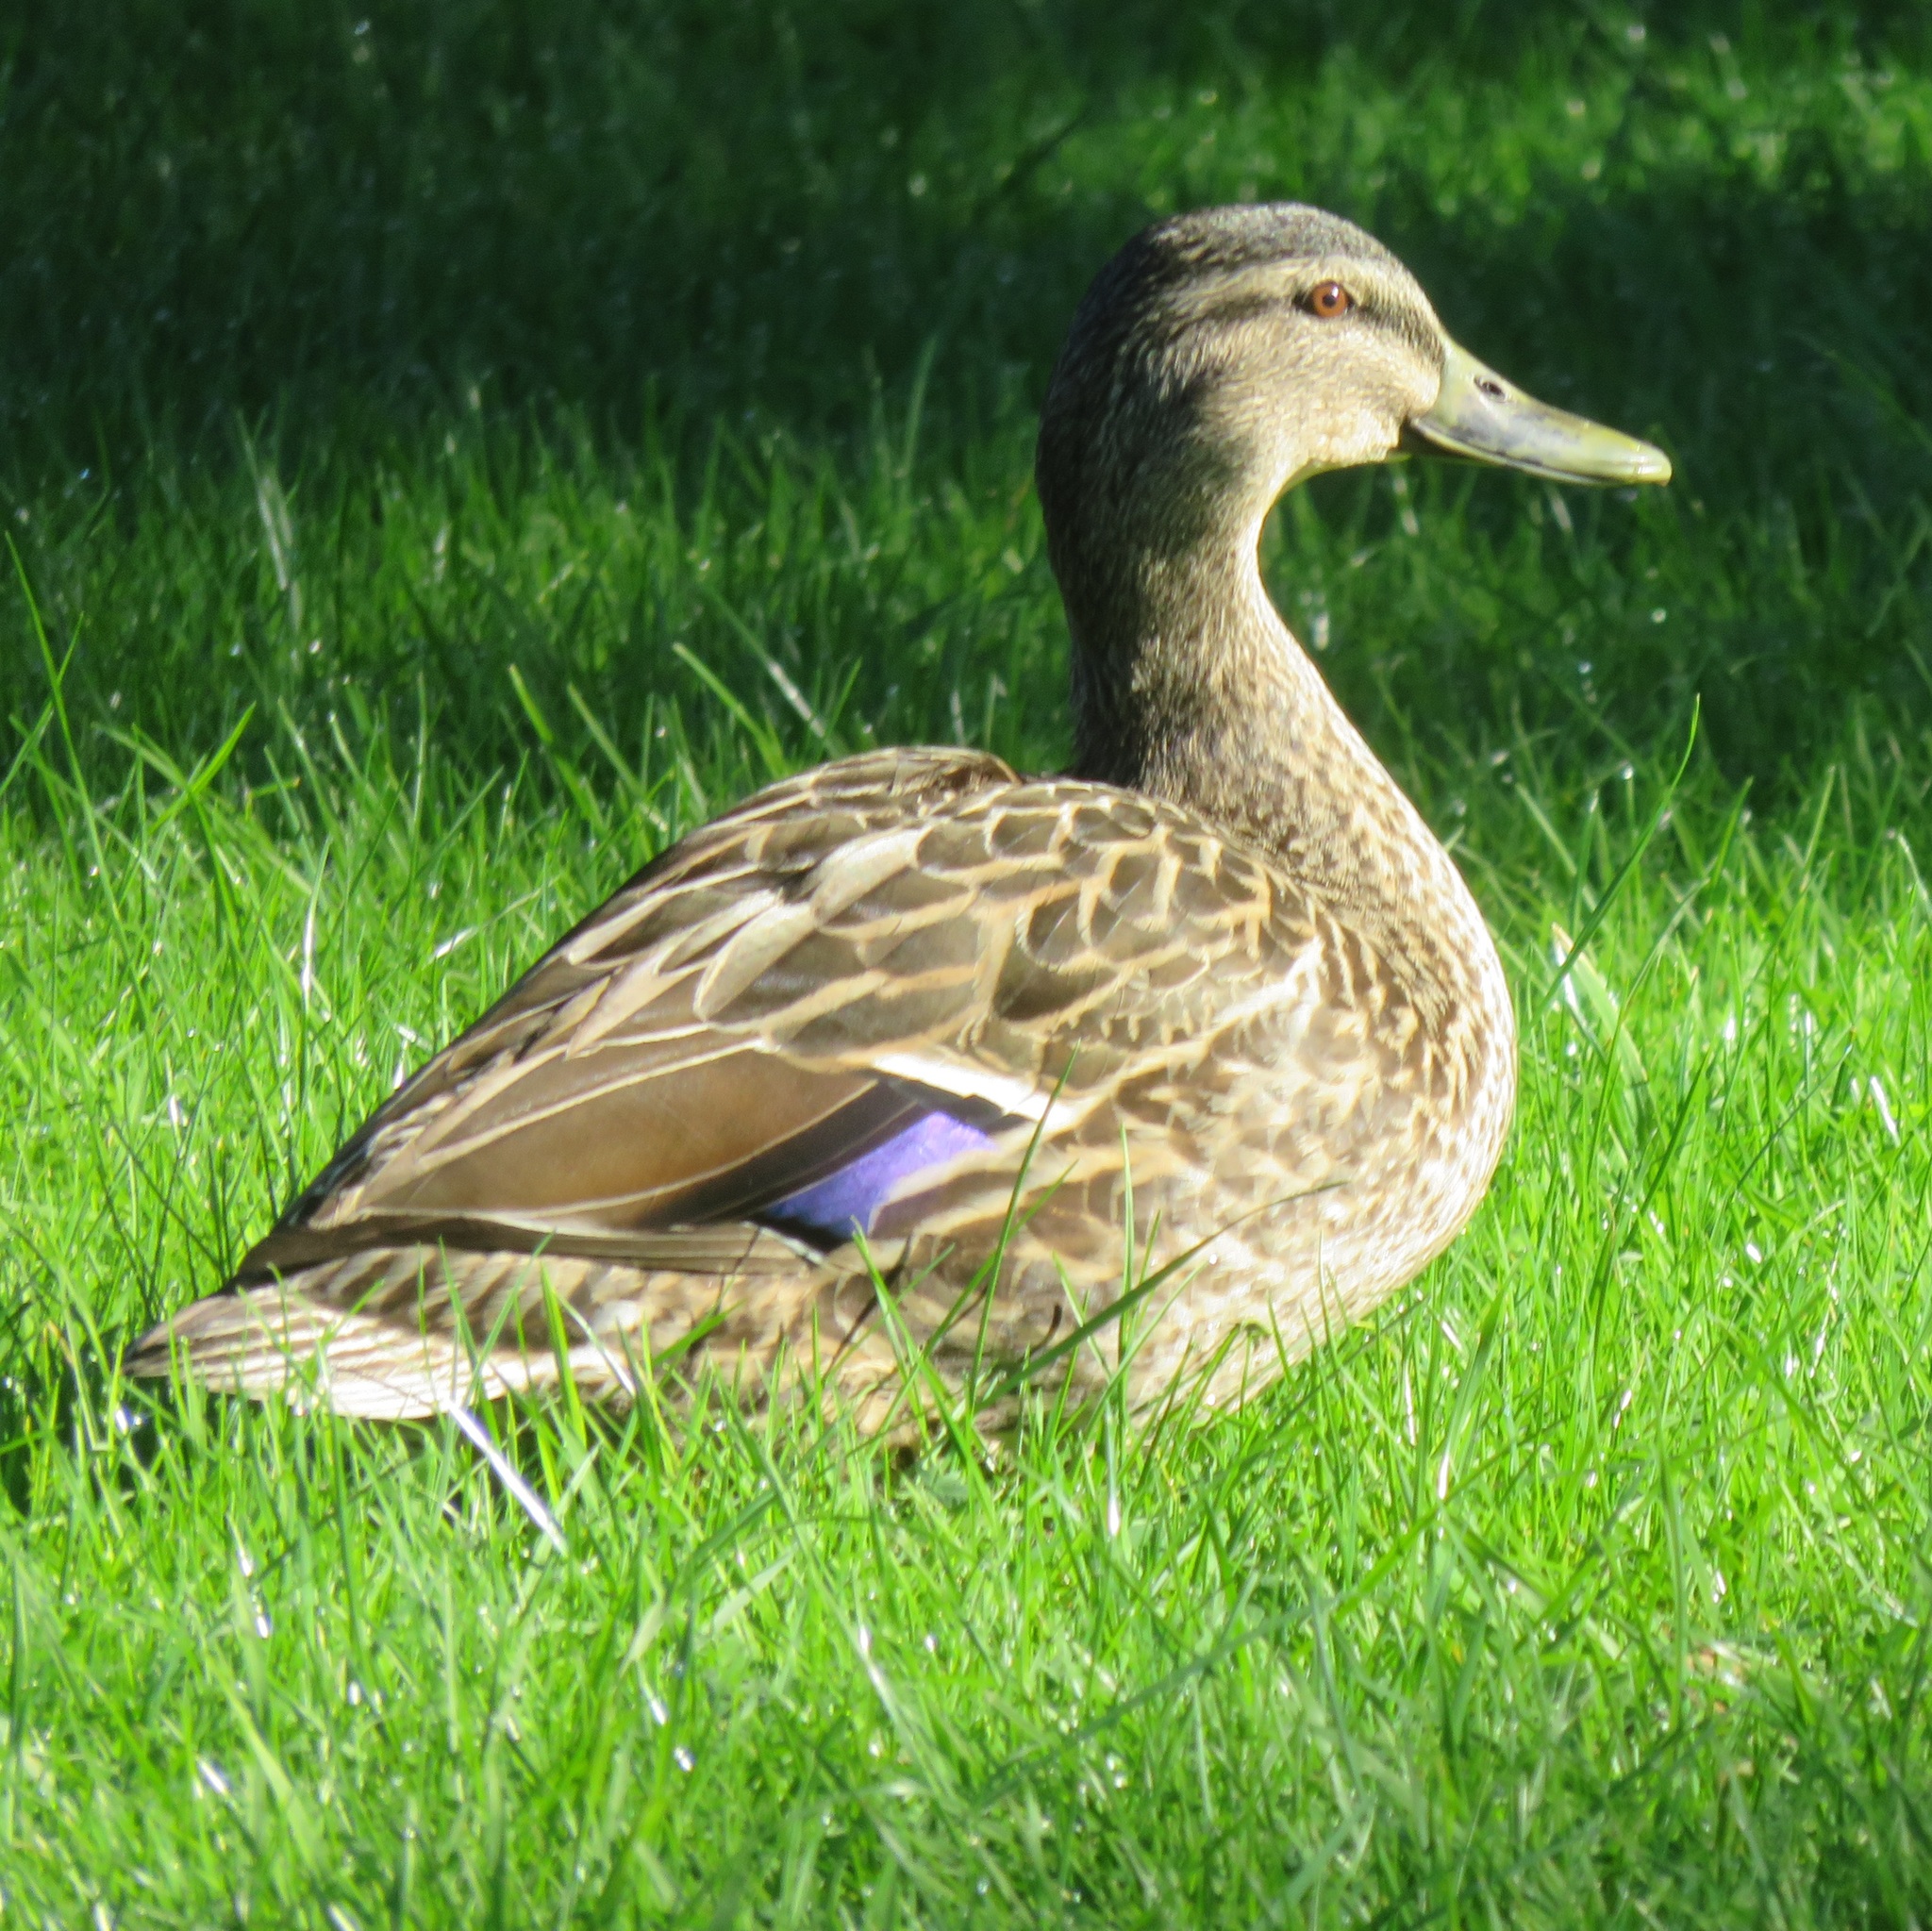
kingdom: Animalia
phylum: Chordata
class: Aves
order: Anseriformes
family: Anatidae
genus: Anas
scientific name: Anas
